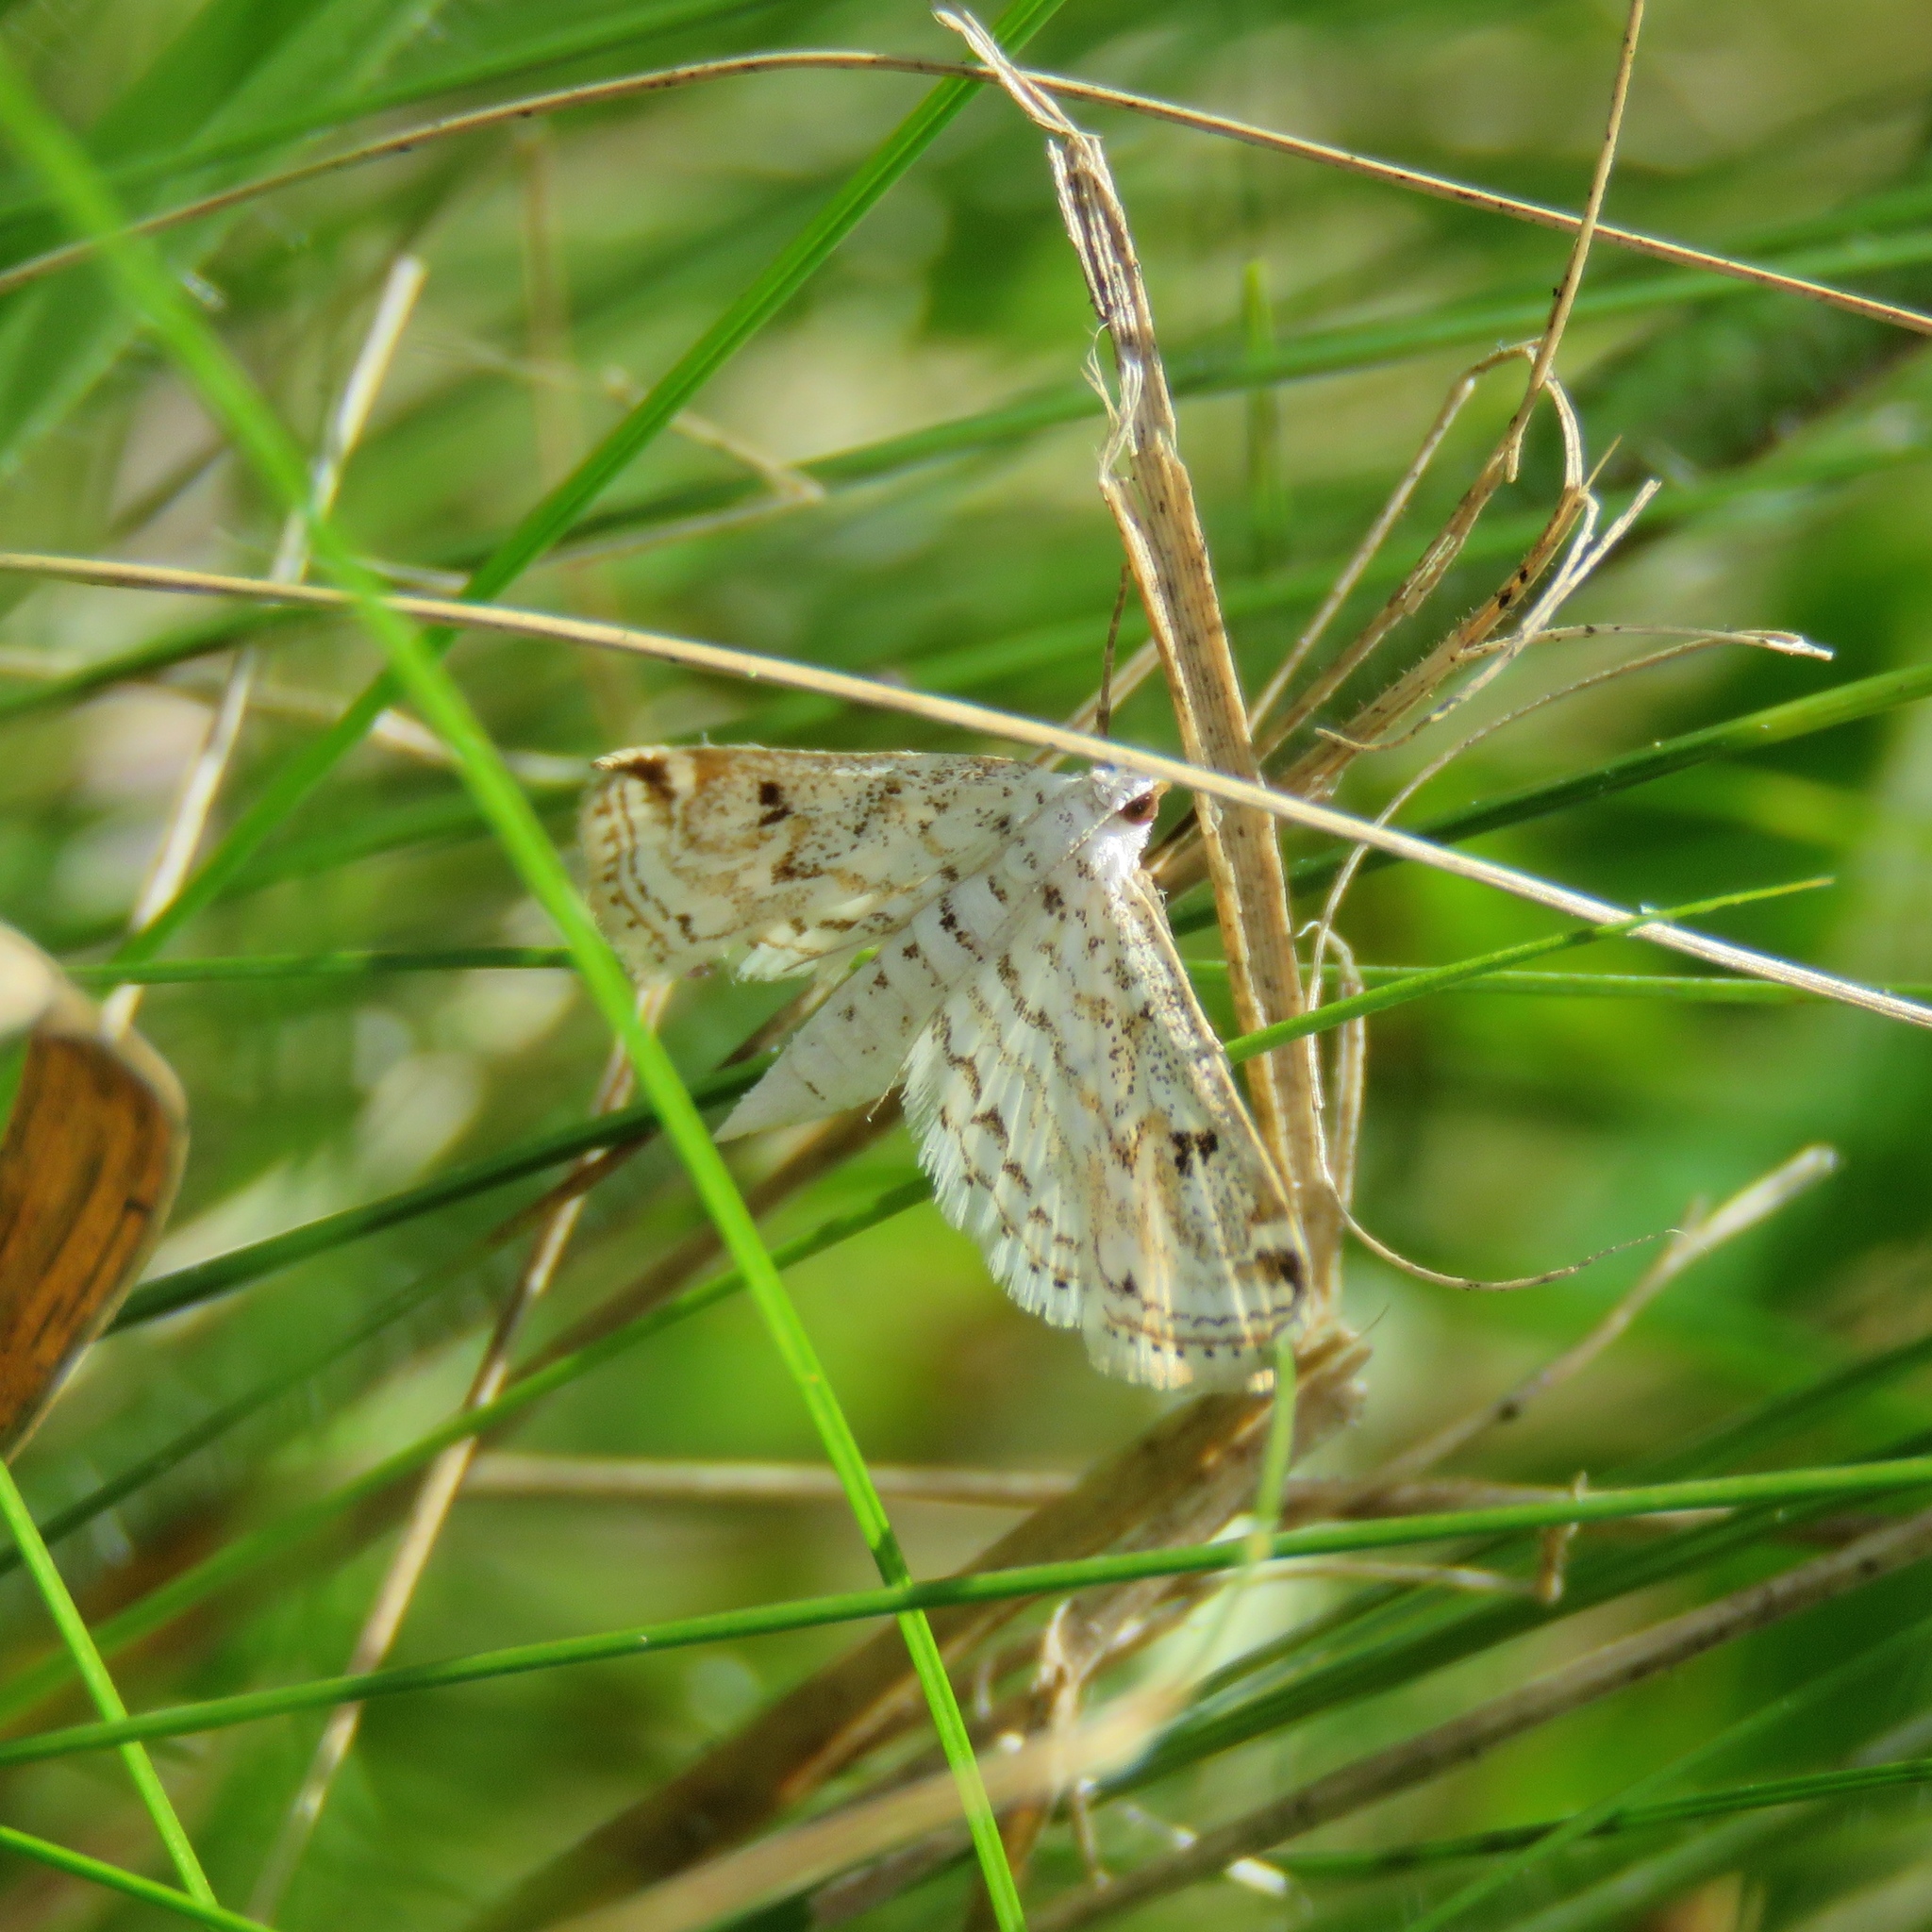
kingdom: Animalia
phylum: Arthropoda
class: Insecta
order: Lepidoptera
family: Crambidae
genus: Parapoynx
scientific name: Parapoynx allionealis
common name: Bladderwort casemaker
